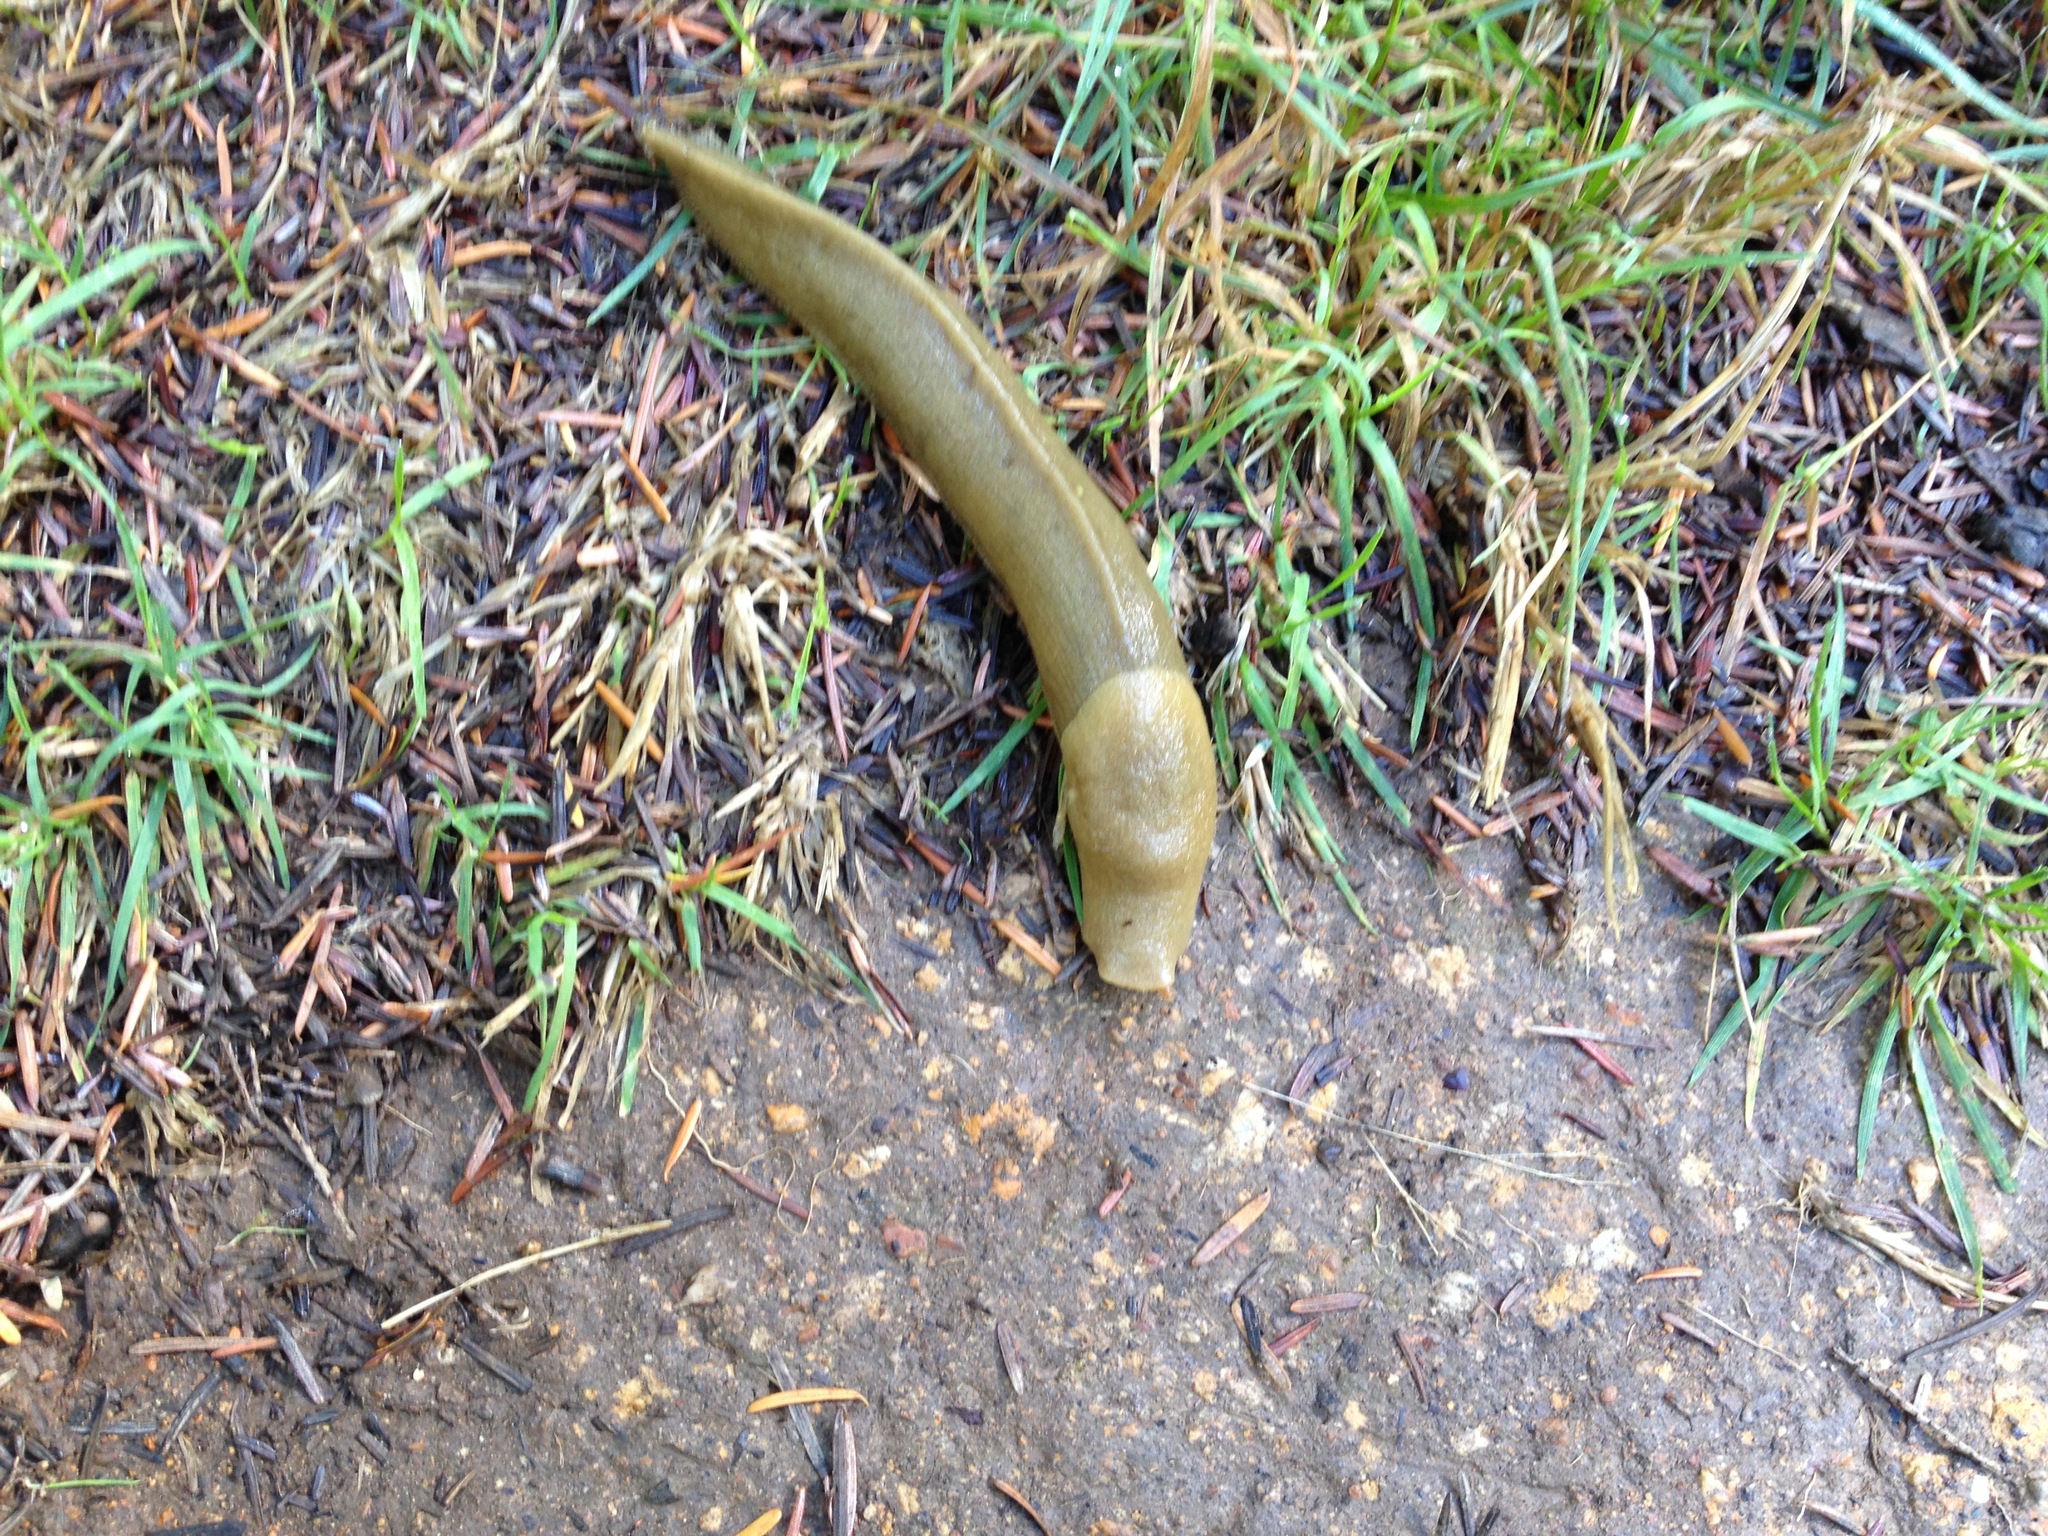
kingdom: Animalia
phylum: Mollusca
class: Gastropoda
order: Stylommatophora
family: Ariolimacidae
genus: Ariolimax
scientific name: Ariolimax columbianus
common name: Pacific banana slug
